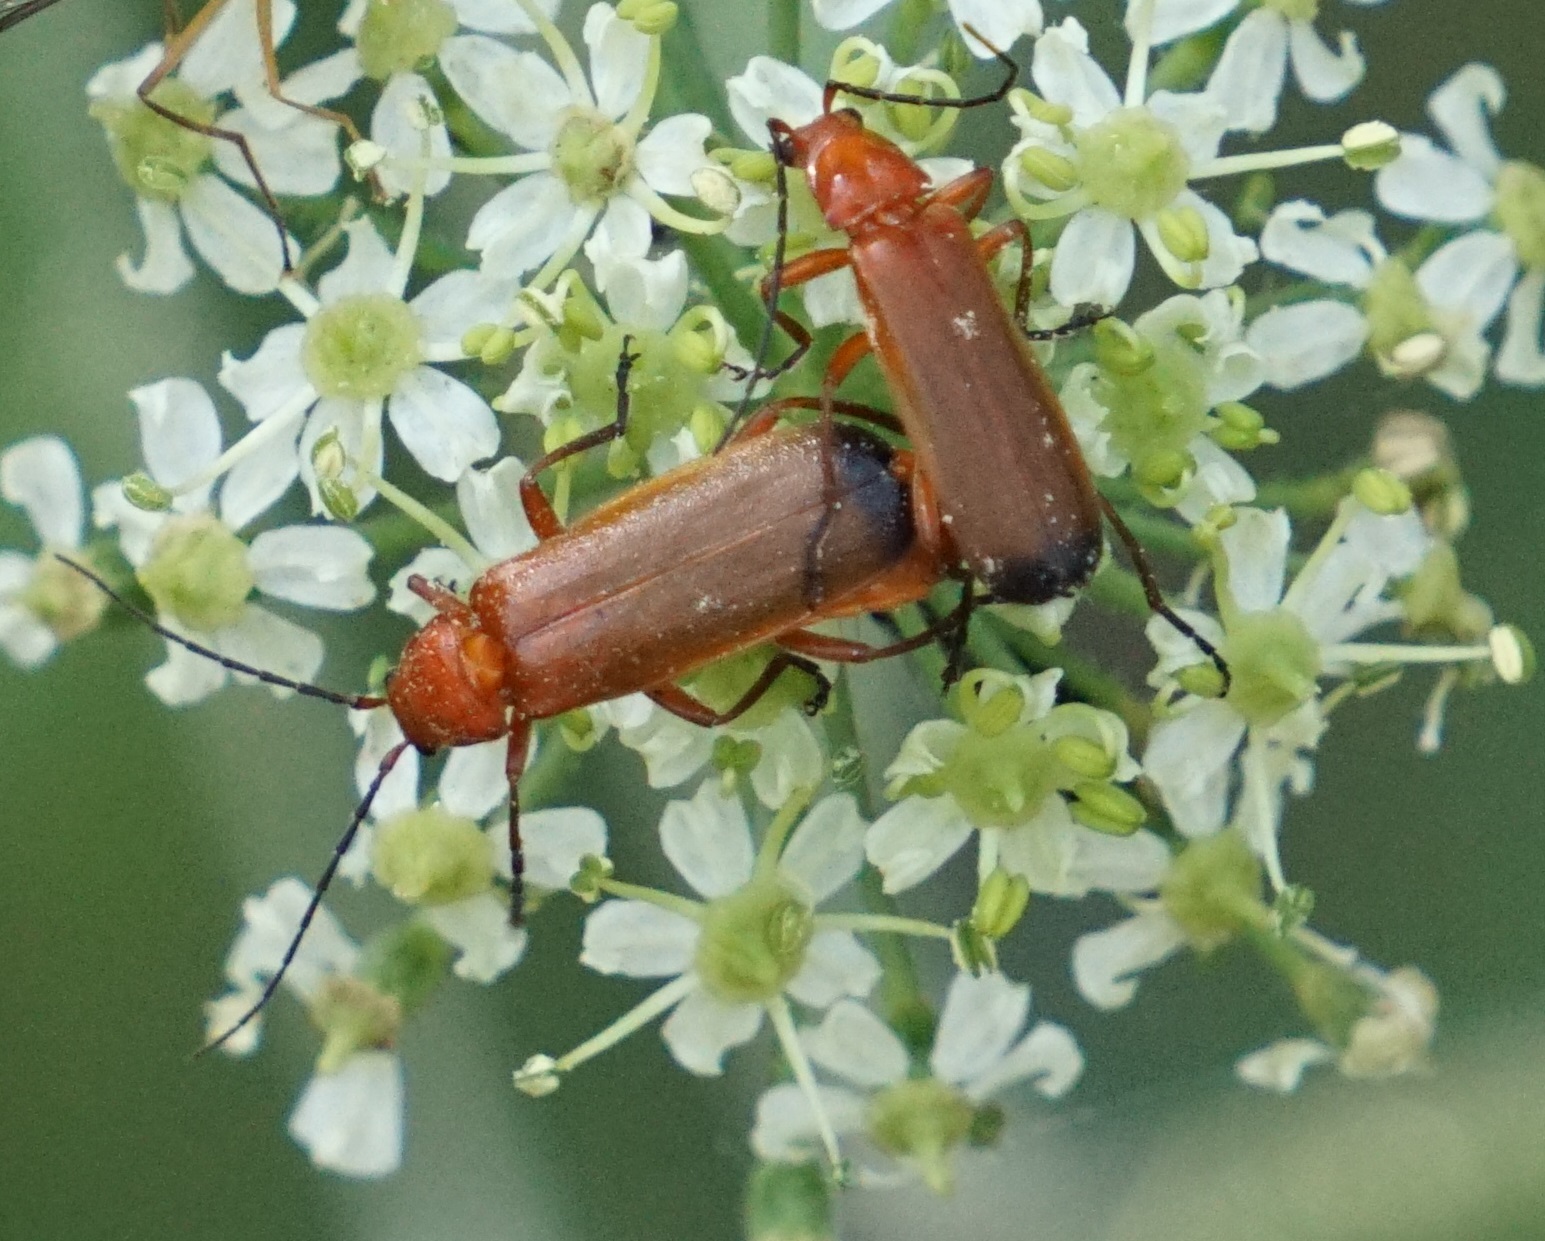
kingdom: Animalia
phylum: Arthropoda
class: Insecta
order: Coleoptera
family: Cantharidae
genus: Rhagonycha
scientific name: Rhagonycha fulva
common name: Common red soldier beetle
